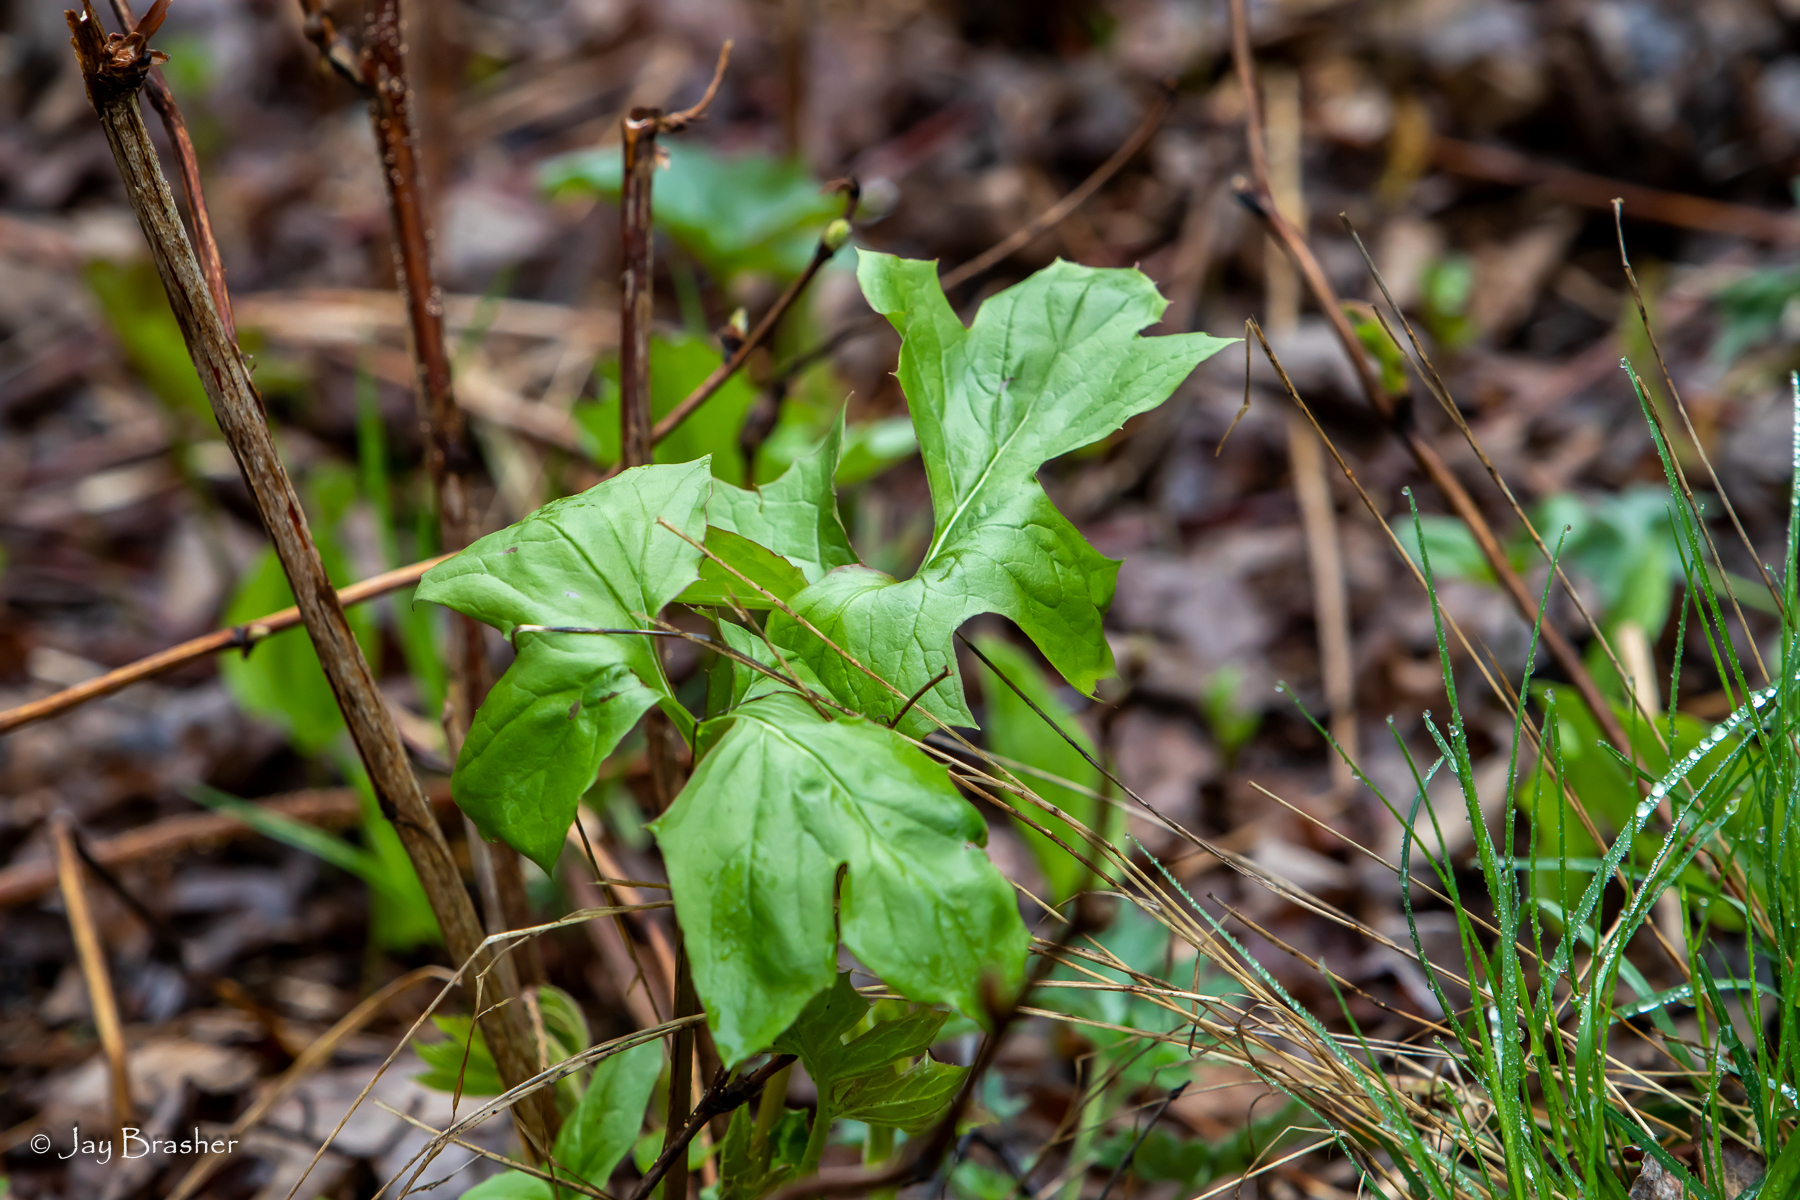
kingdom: Plantae
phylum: Tracheophyta
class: Magnoliopsida
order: Asterales
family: Asteraceae
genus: Nabalus
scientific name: Nabalus albus
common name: White rattlesnakeroot
